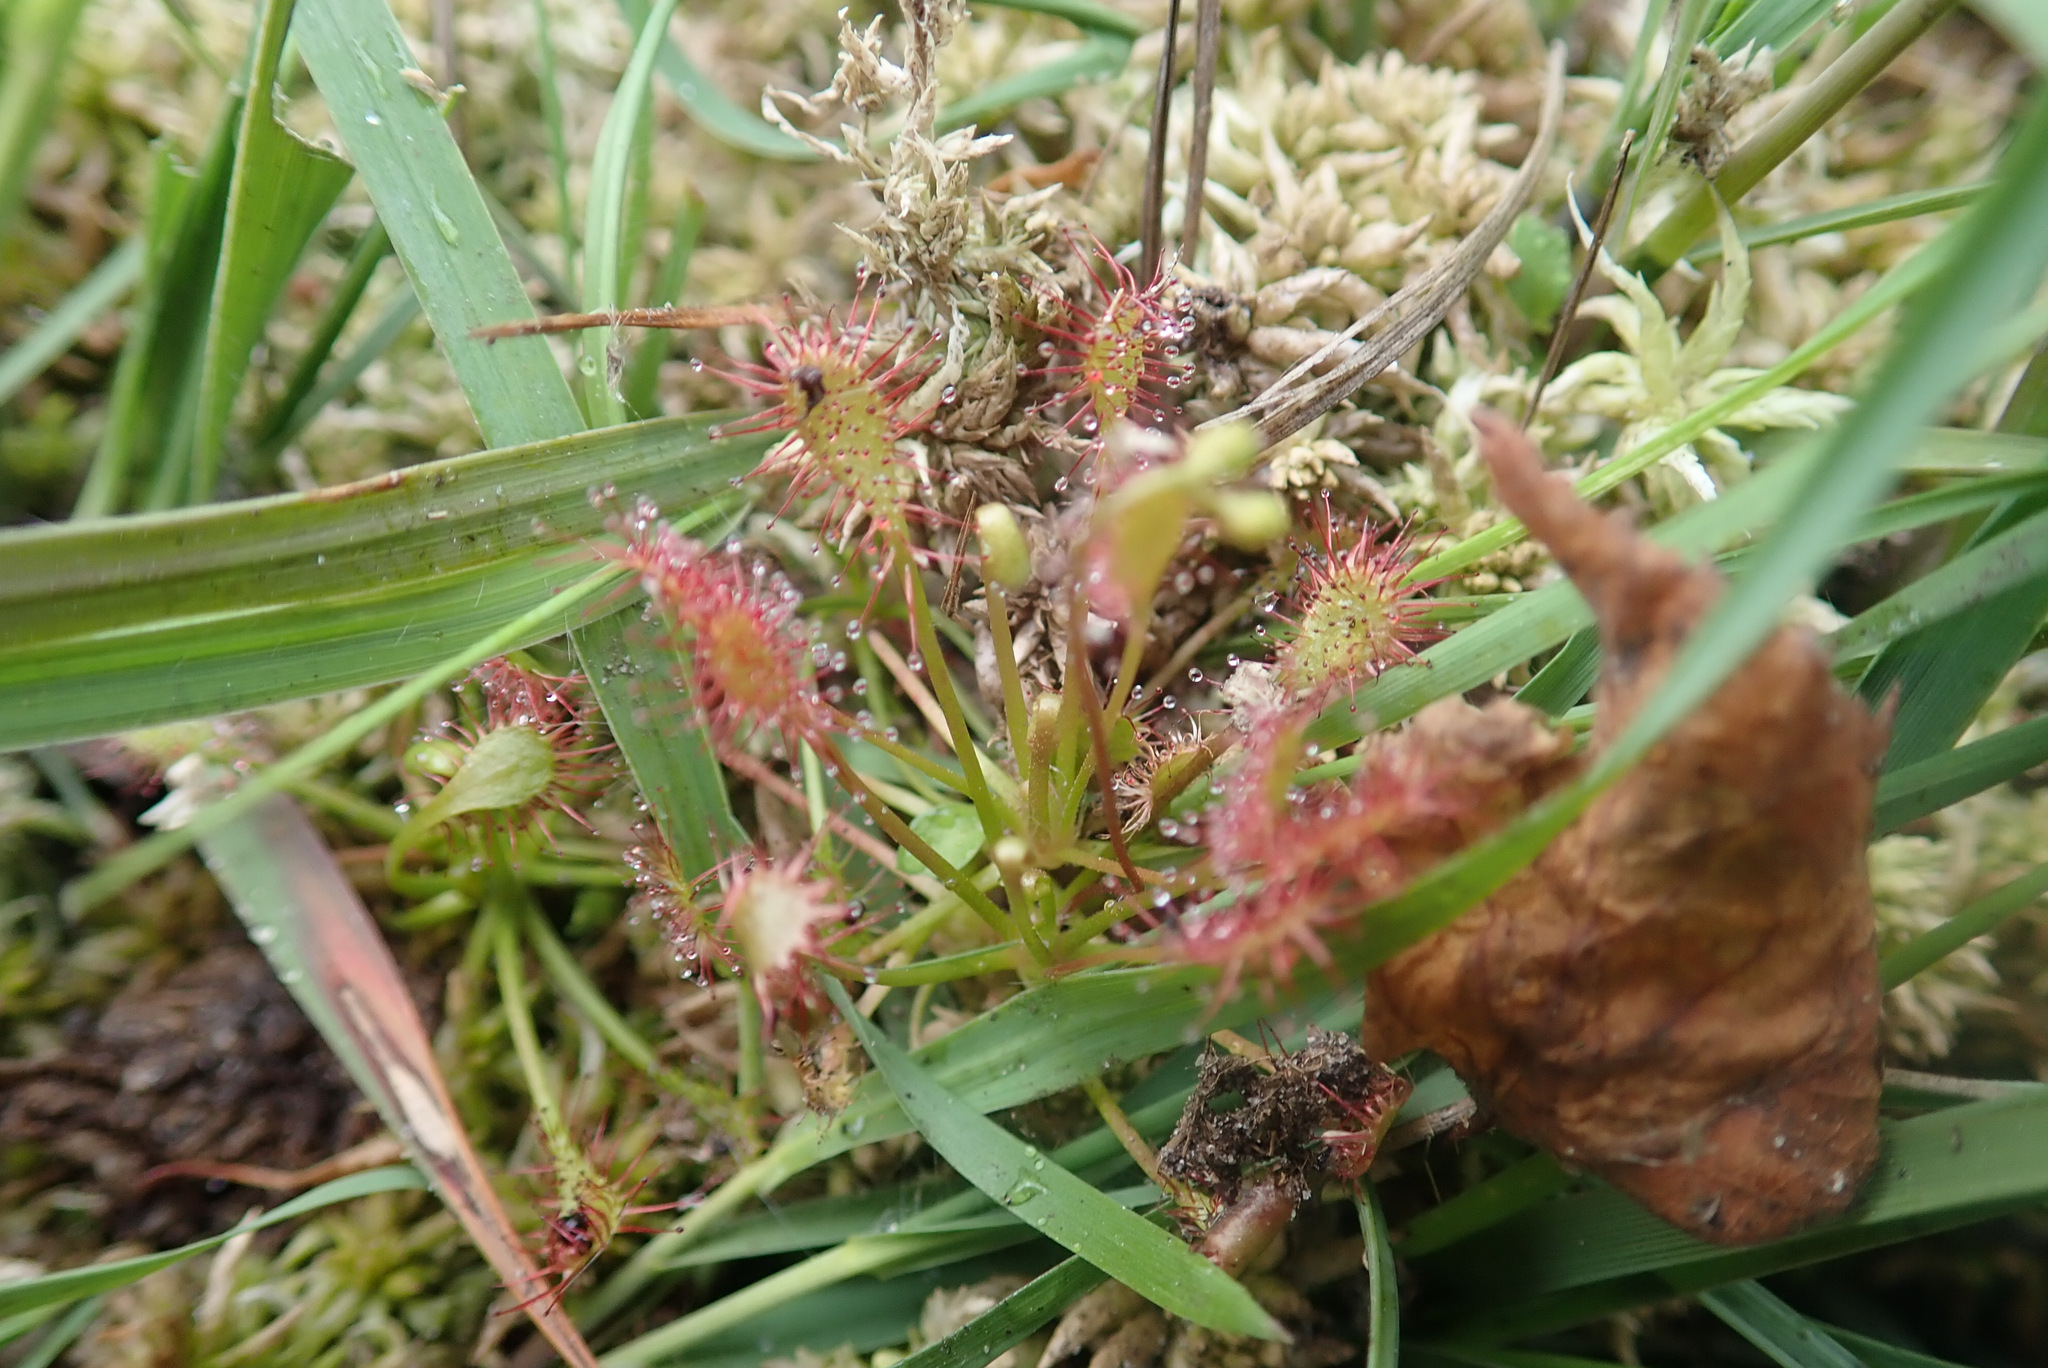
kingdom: Plantae
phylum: Tracheophyta
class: Magnoliopsida
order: Caryophyllales
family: Droseraceae
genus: Drosera
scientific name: Drosera intermedia
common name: Oblong-leaved sundew
